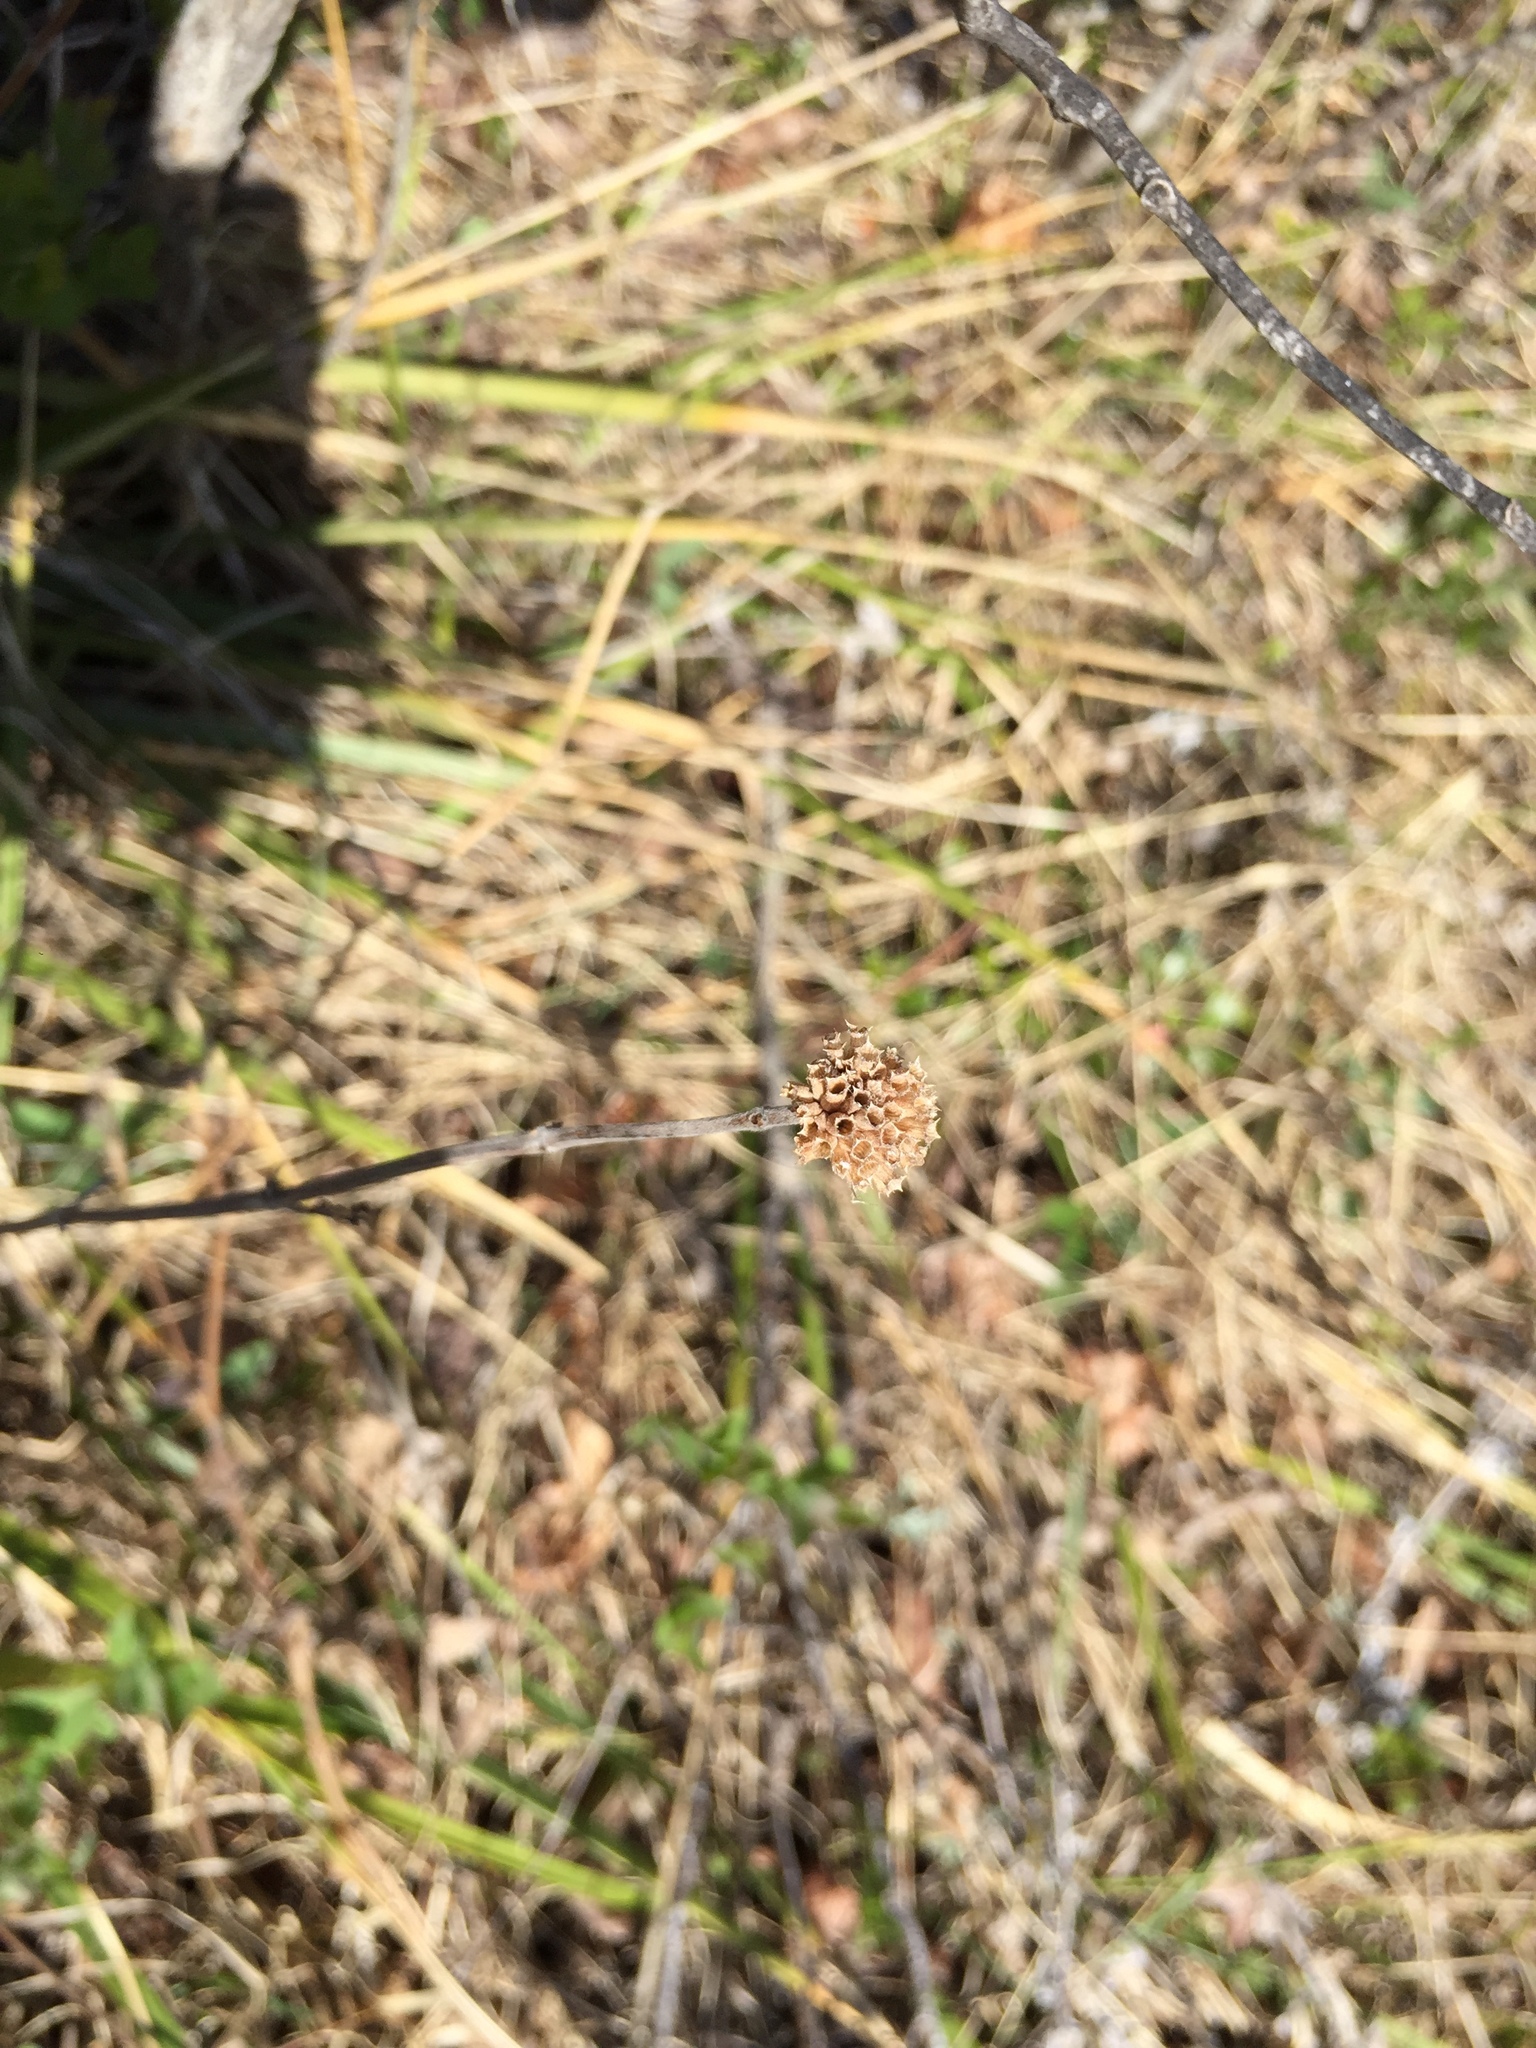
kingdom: Plantae
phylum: Tracheophyta
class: Magnoliopsida
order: Lamiales
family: Lamiaceae
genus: Monarda
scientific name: Monarda fistulosa
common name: Purple beebalm
